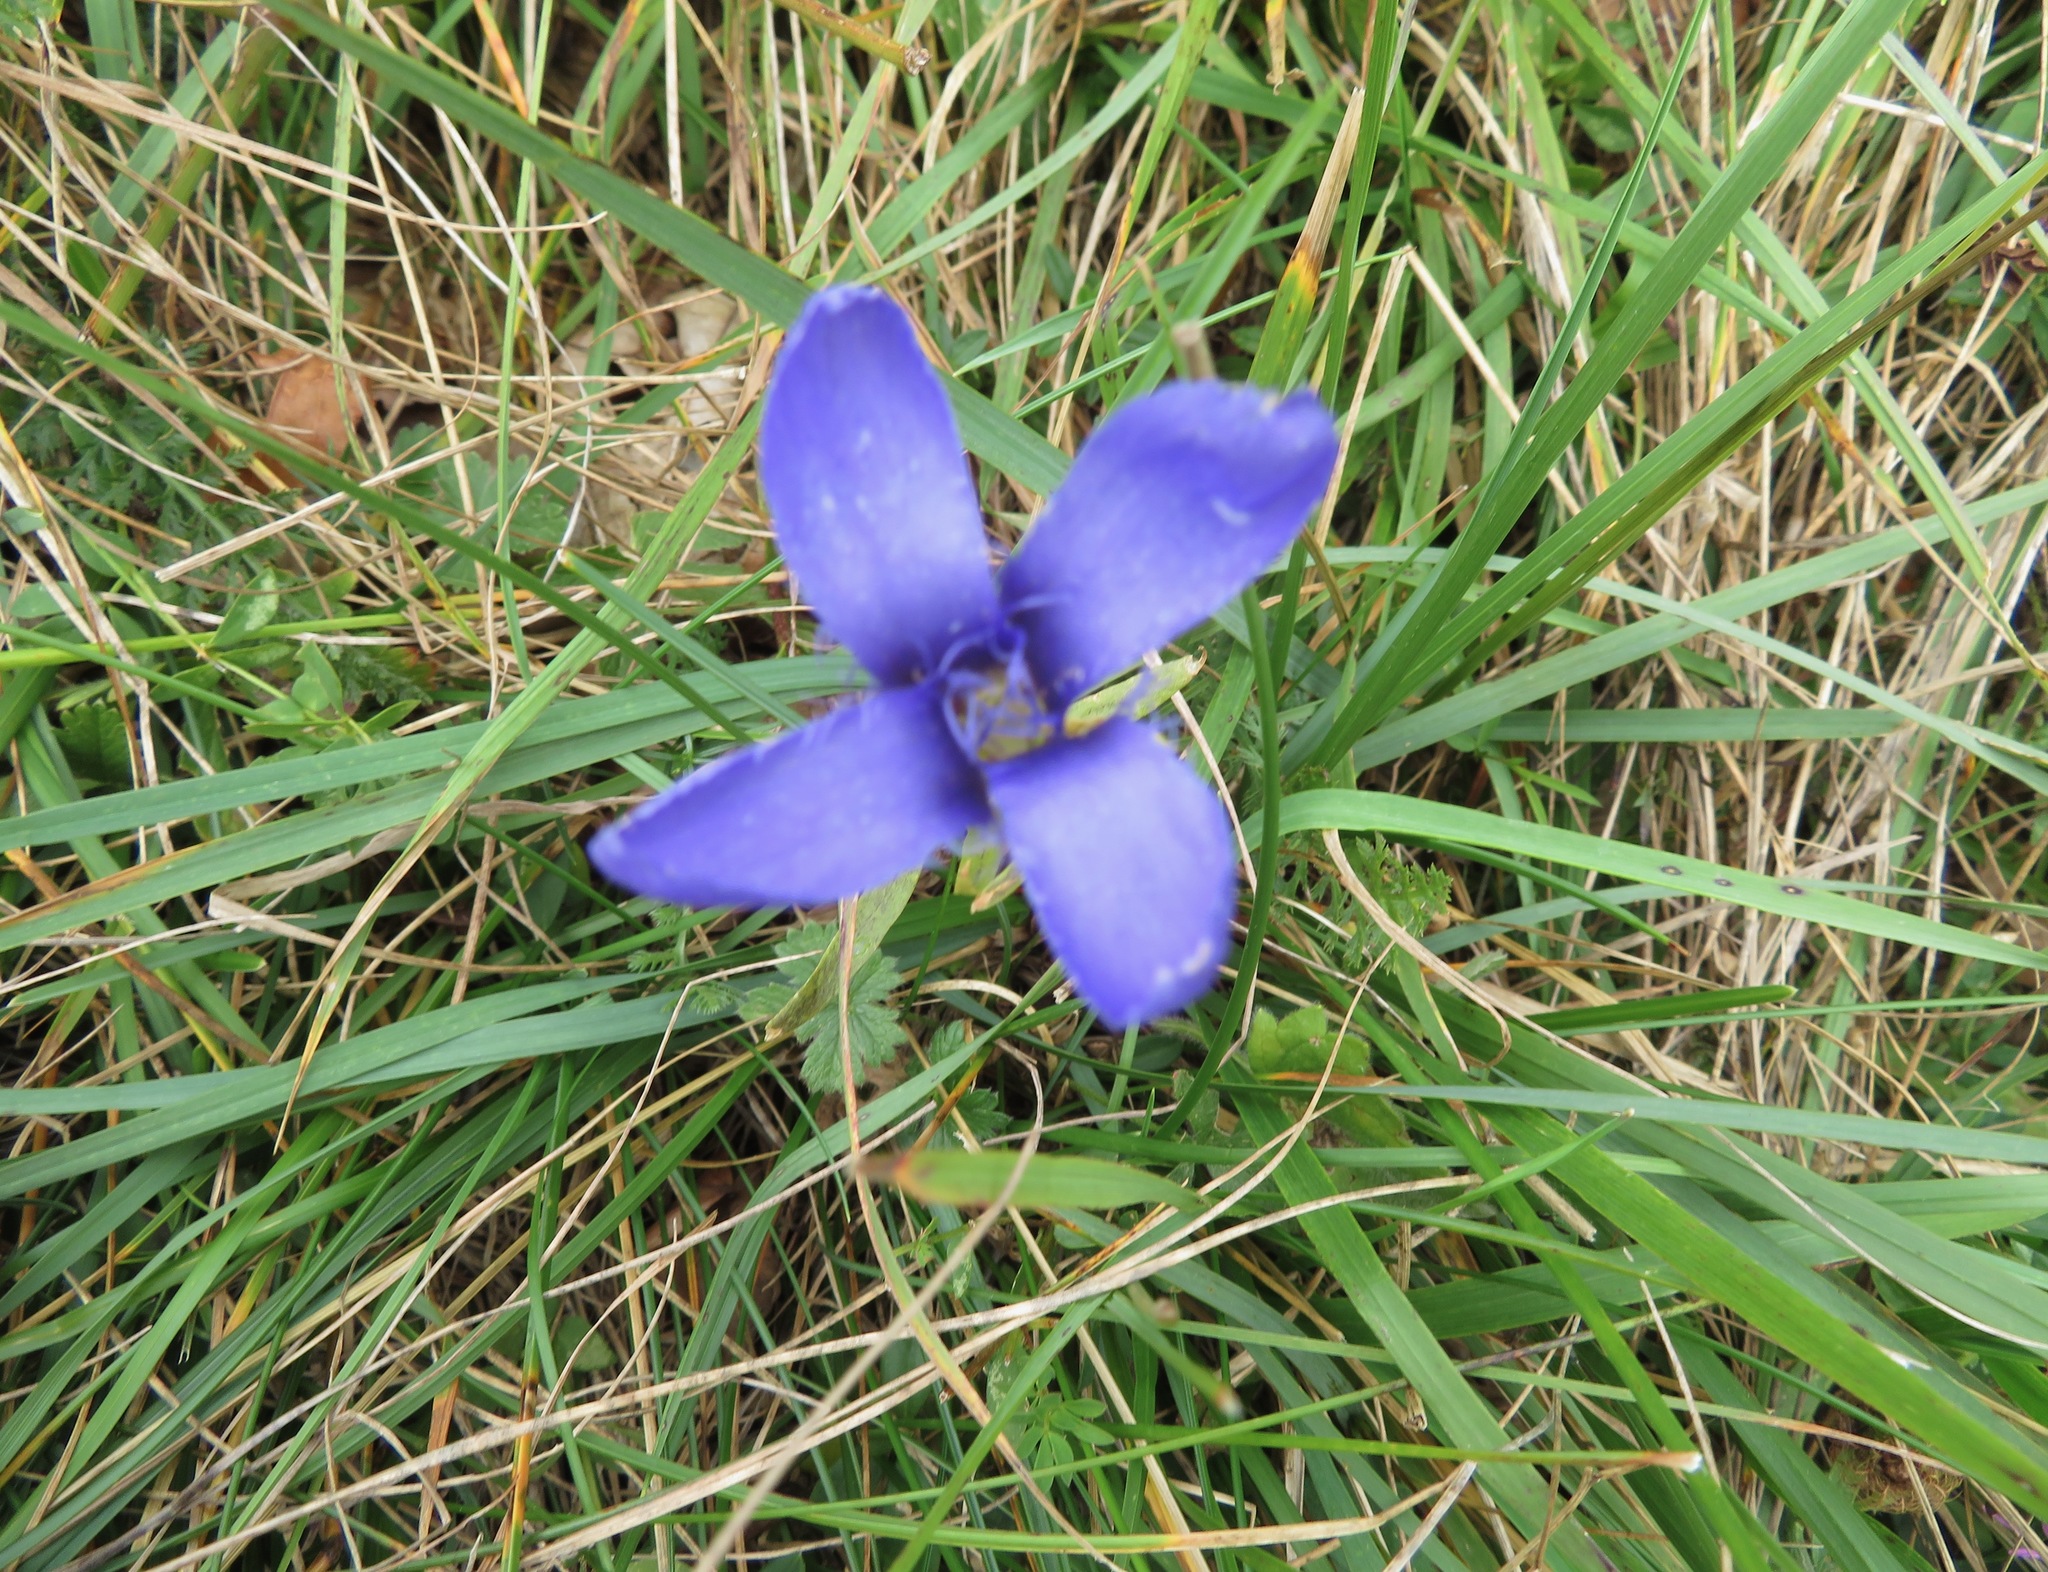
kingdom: Plantae
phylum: Tracheophyta
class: Magnoliopsida
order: Gentianales
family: Gentianaceae
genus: Gentianopsis
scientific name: Gentianopsis ciliata
